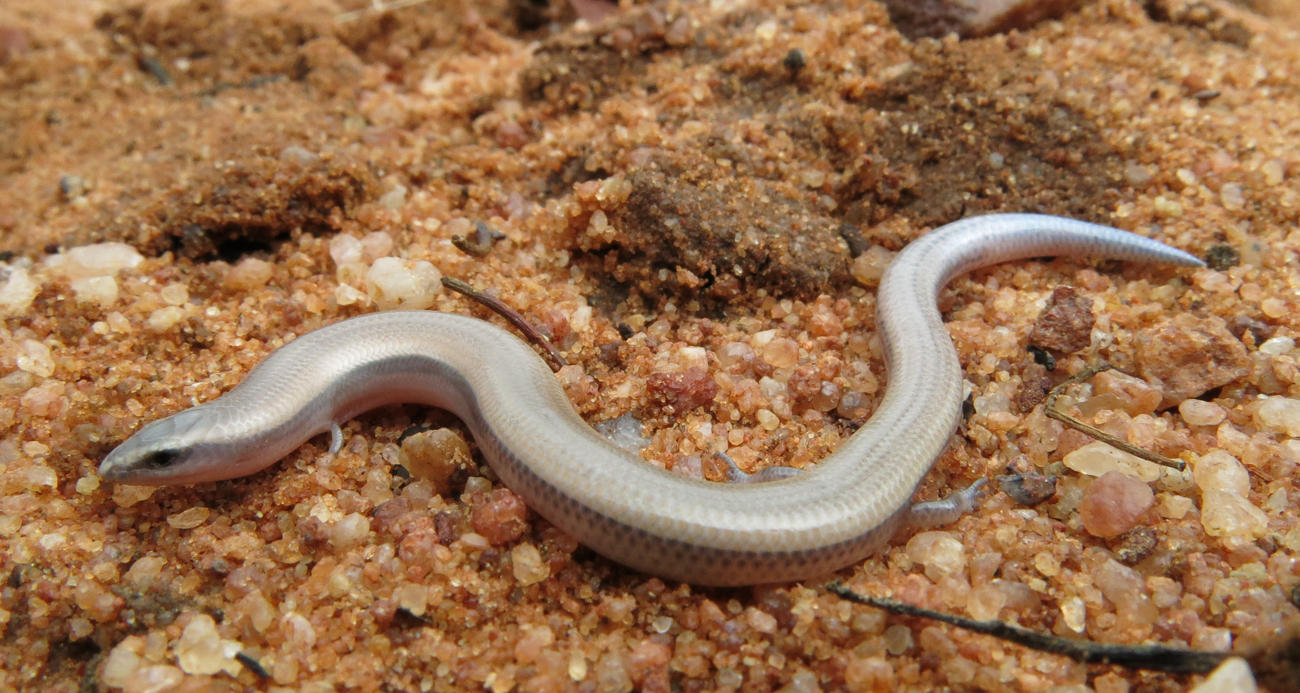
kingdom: Animalia
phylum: Chordata
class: Squamata
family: Scincidae
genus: Scelotes
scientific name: Scelotes limpopoensis
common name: Limpopo dwarf burrowing skink
